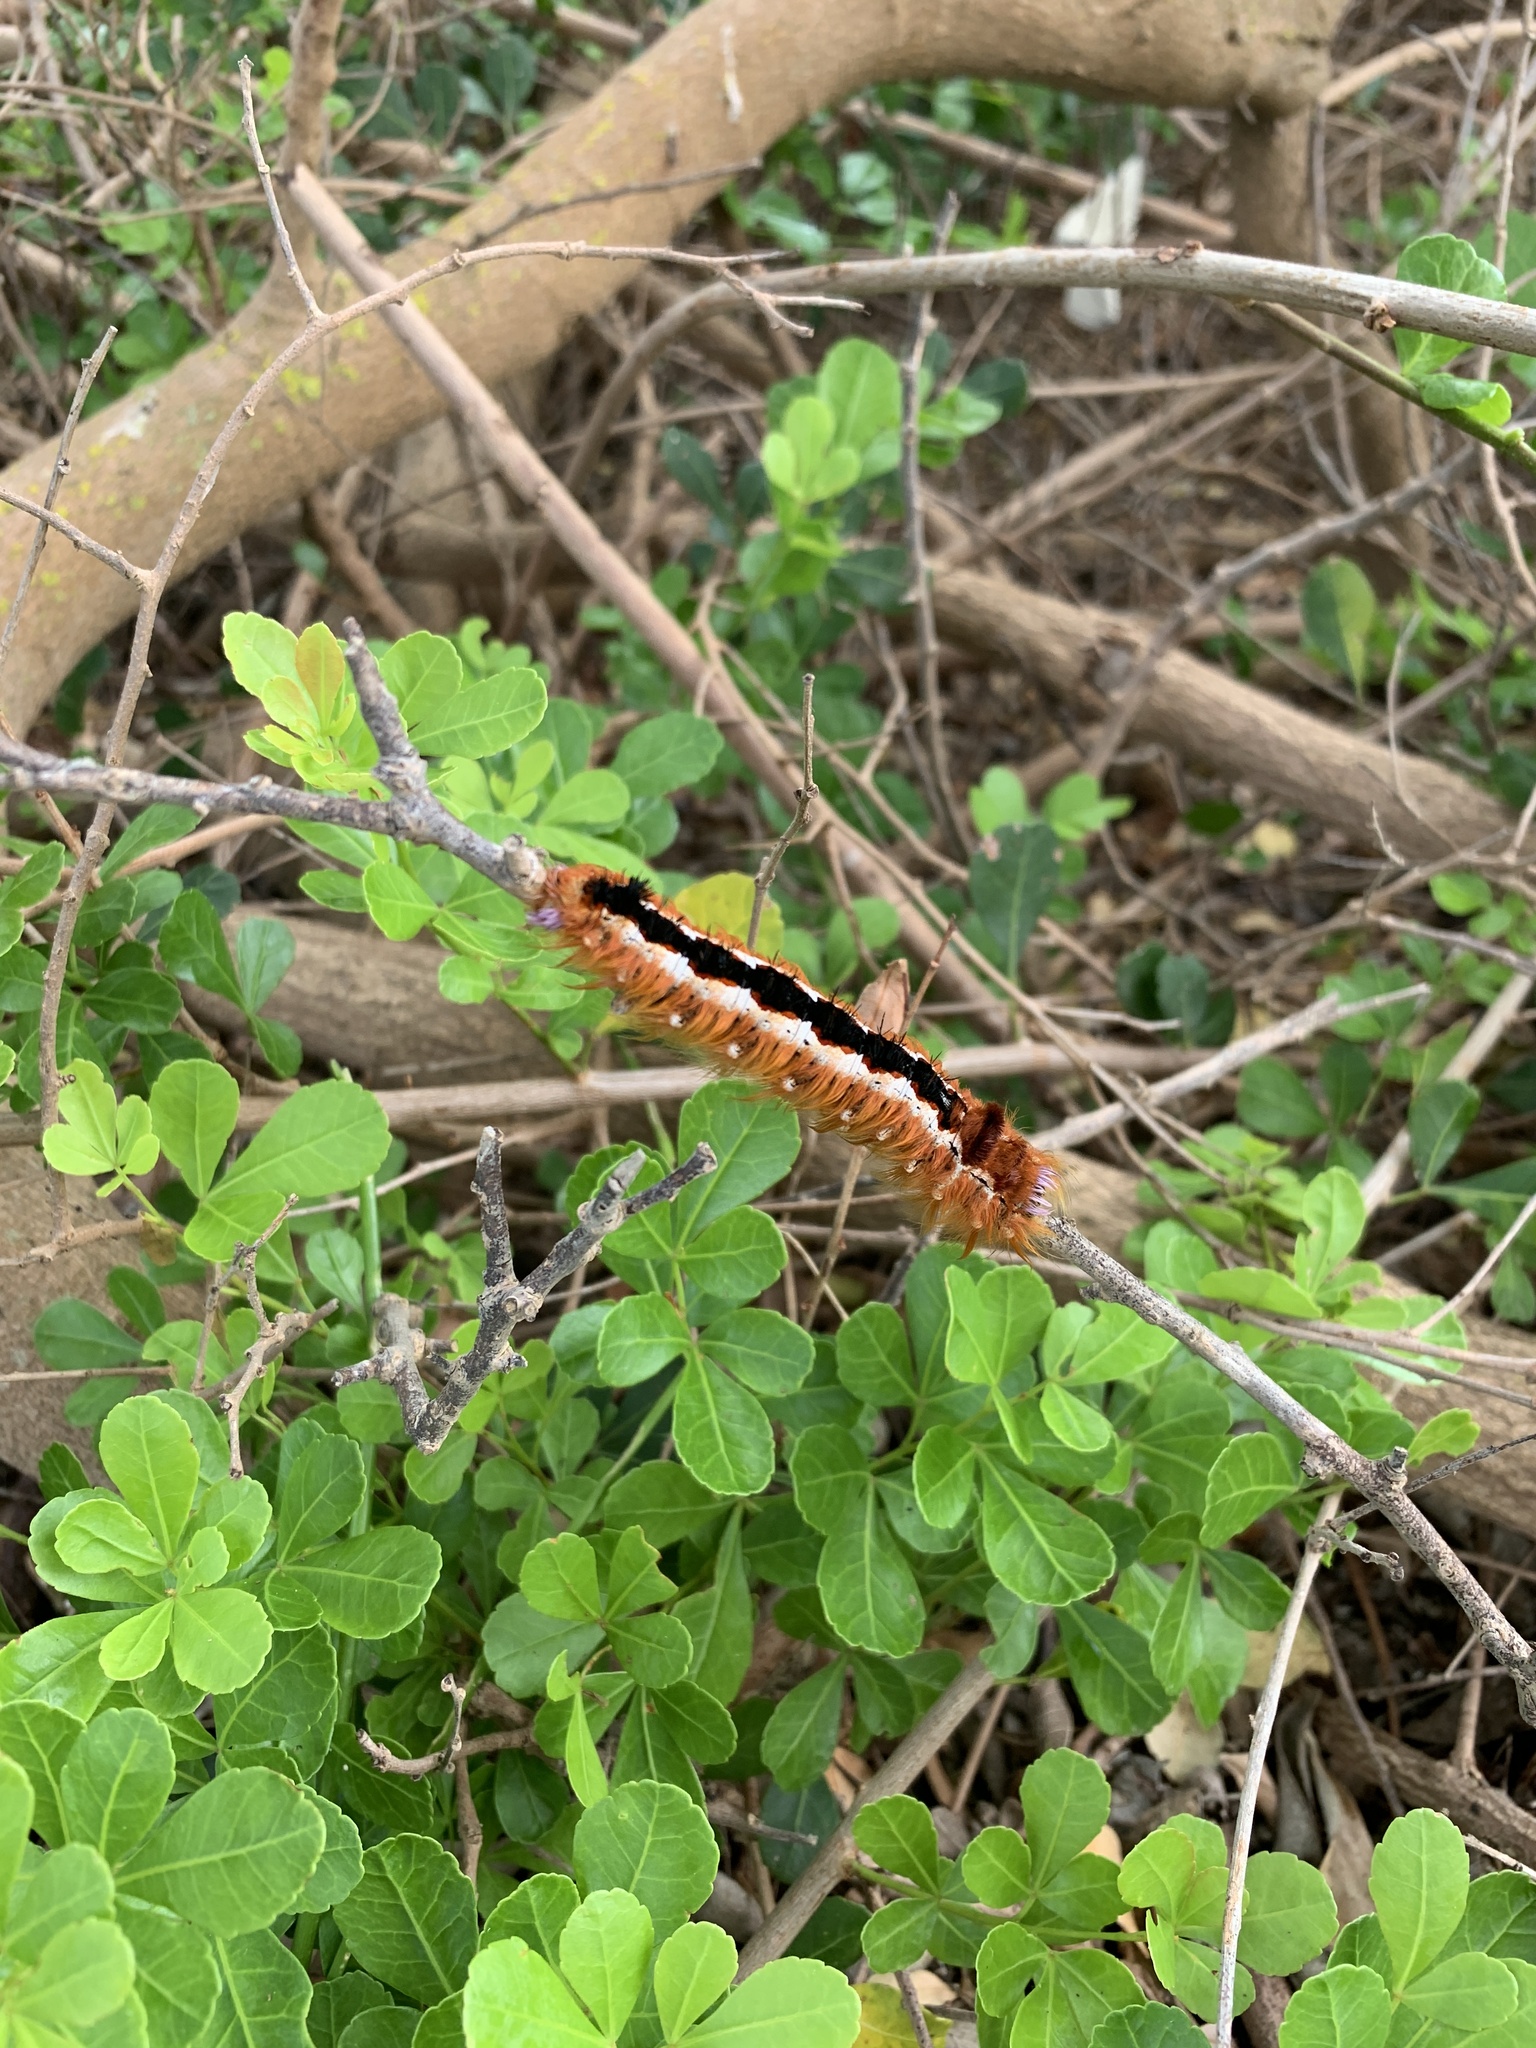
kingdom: Animalia
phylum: Arthropoda
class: Insecta
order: Lepidoptera
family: Lasiocampidae
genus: Eutricha
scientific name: Eutricha capensis
